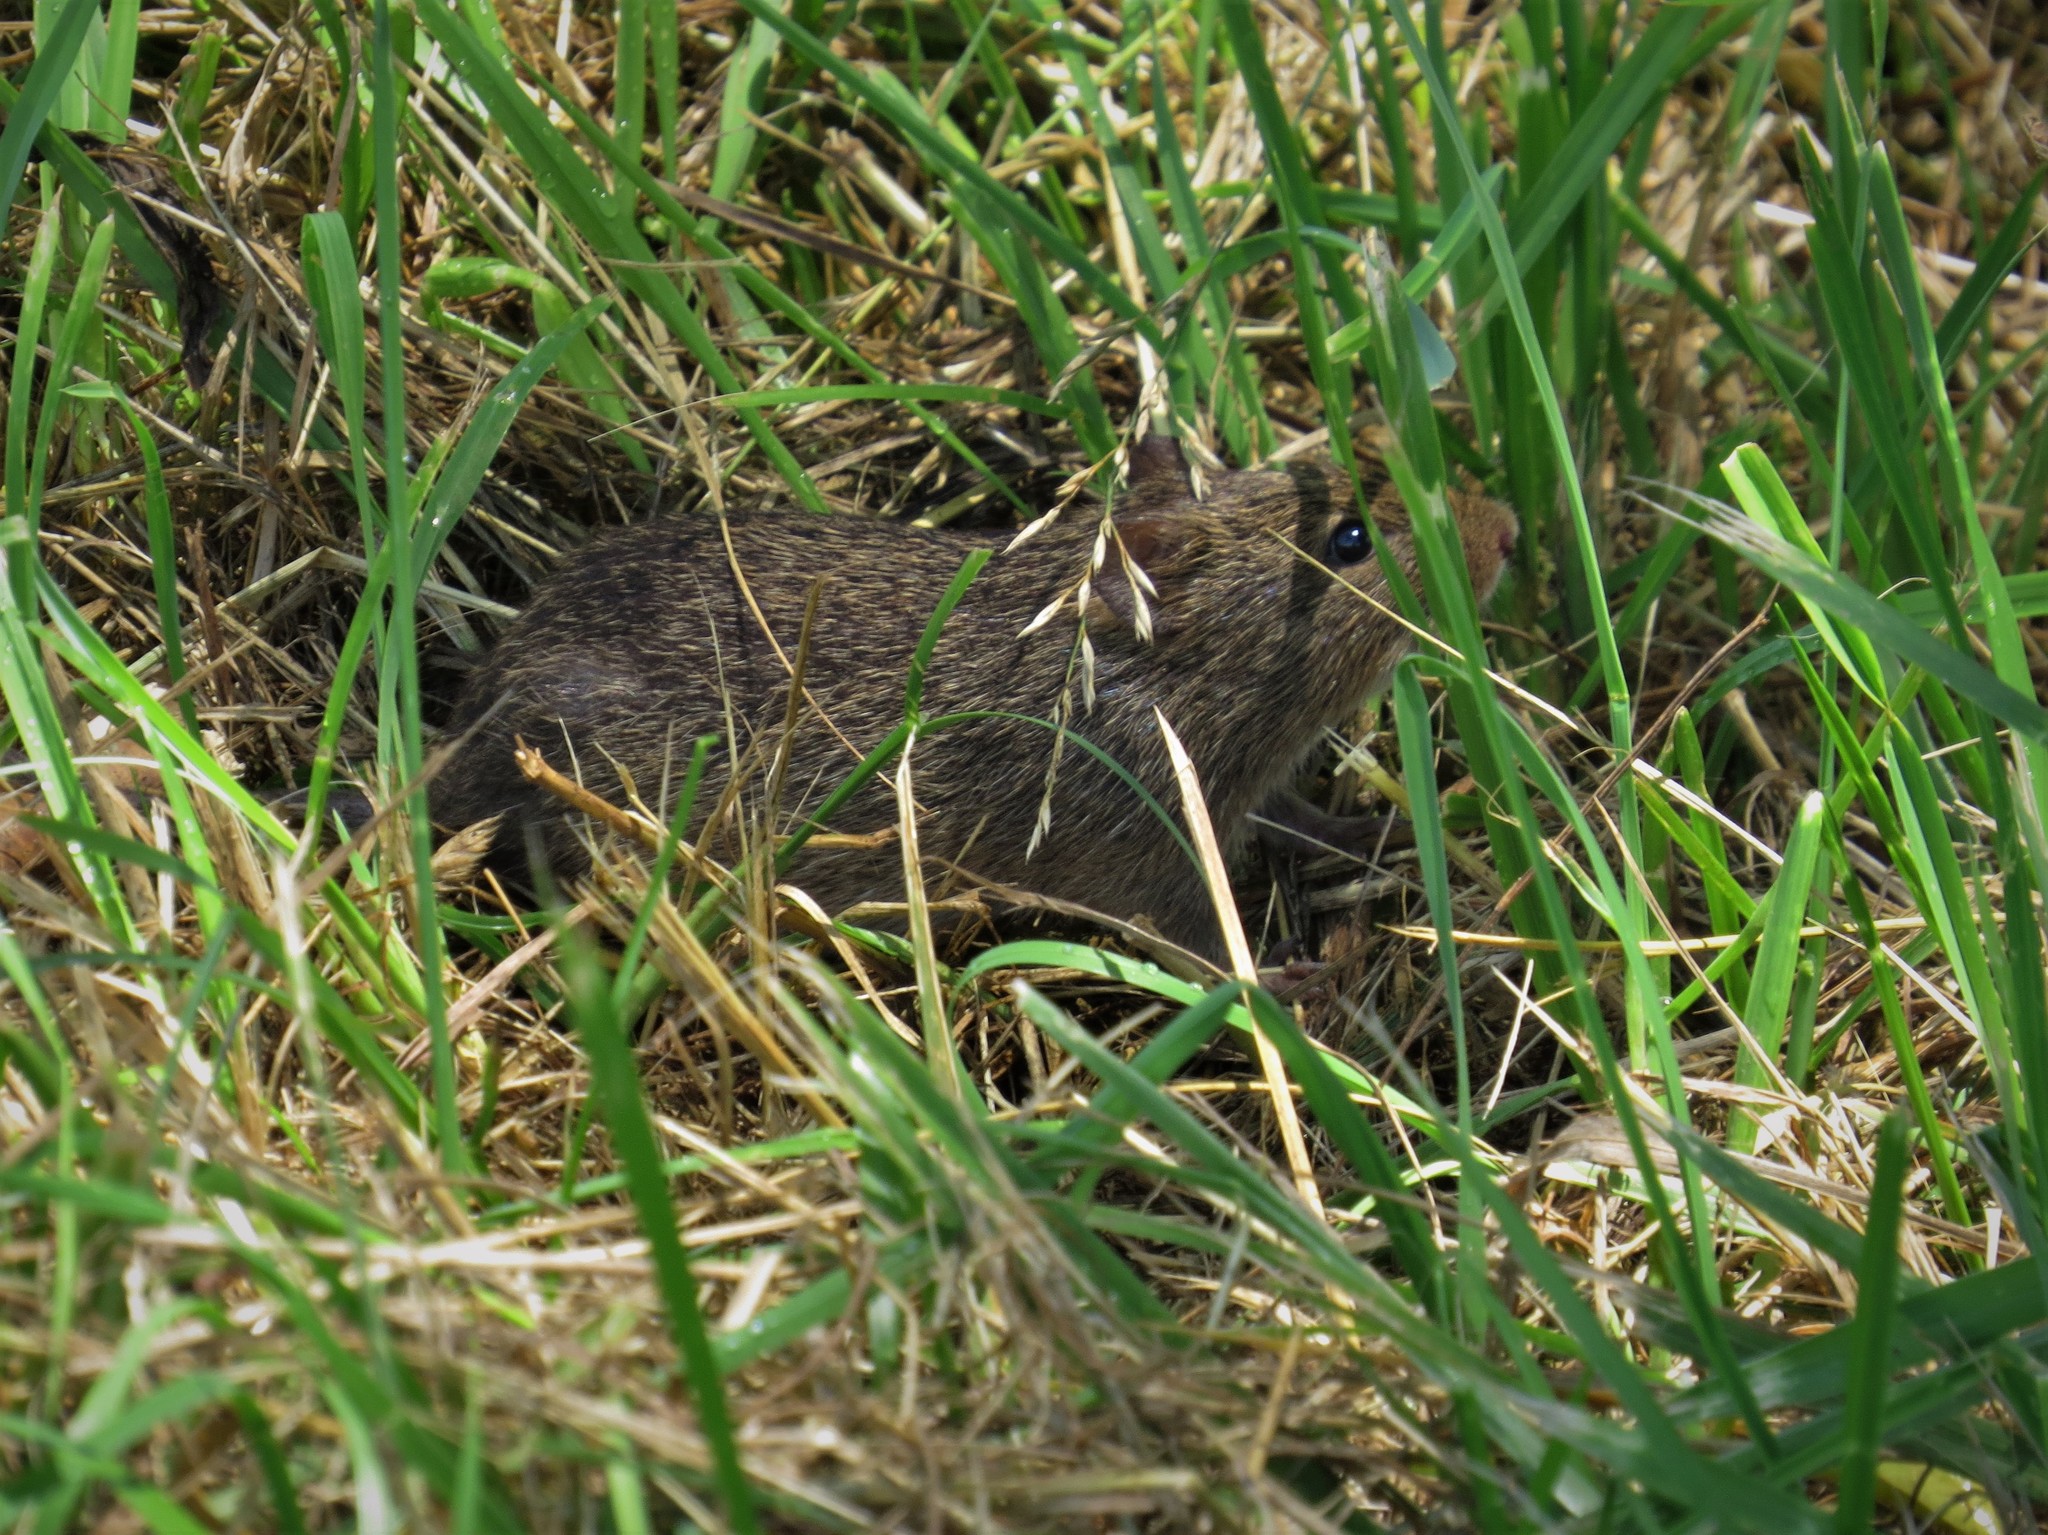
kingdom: Animalia
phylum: Chordata
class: Mammalia
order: Rodentia
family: Cricetidae
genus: Sigmodon
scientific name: Sigmodon hispidus
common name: Hispid cotton rat
